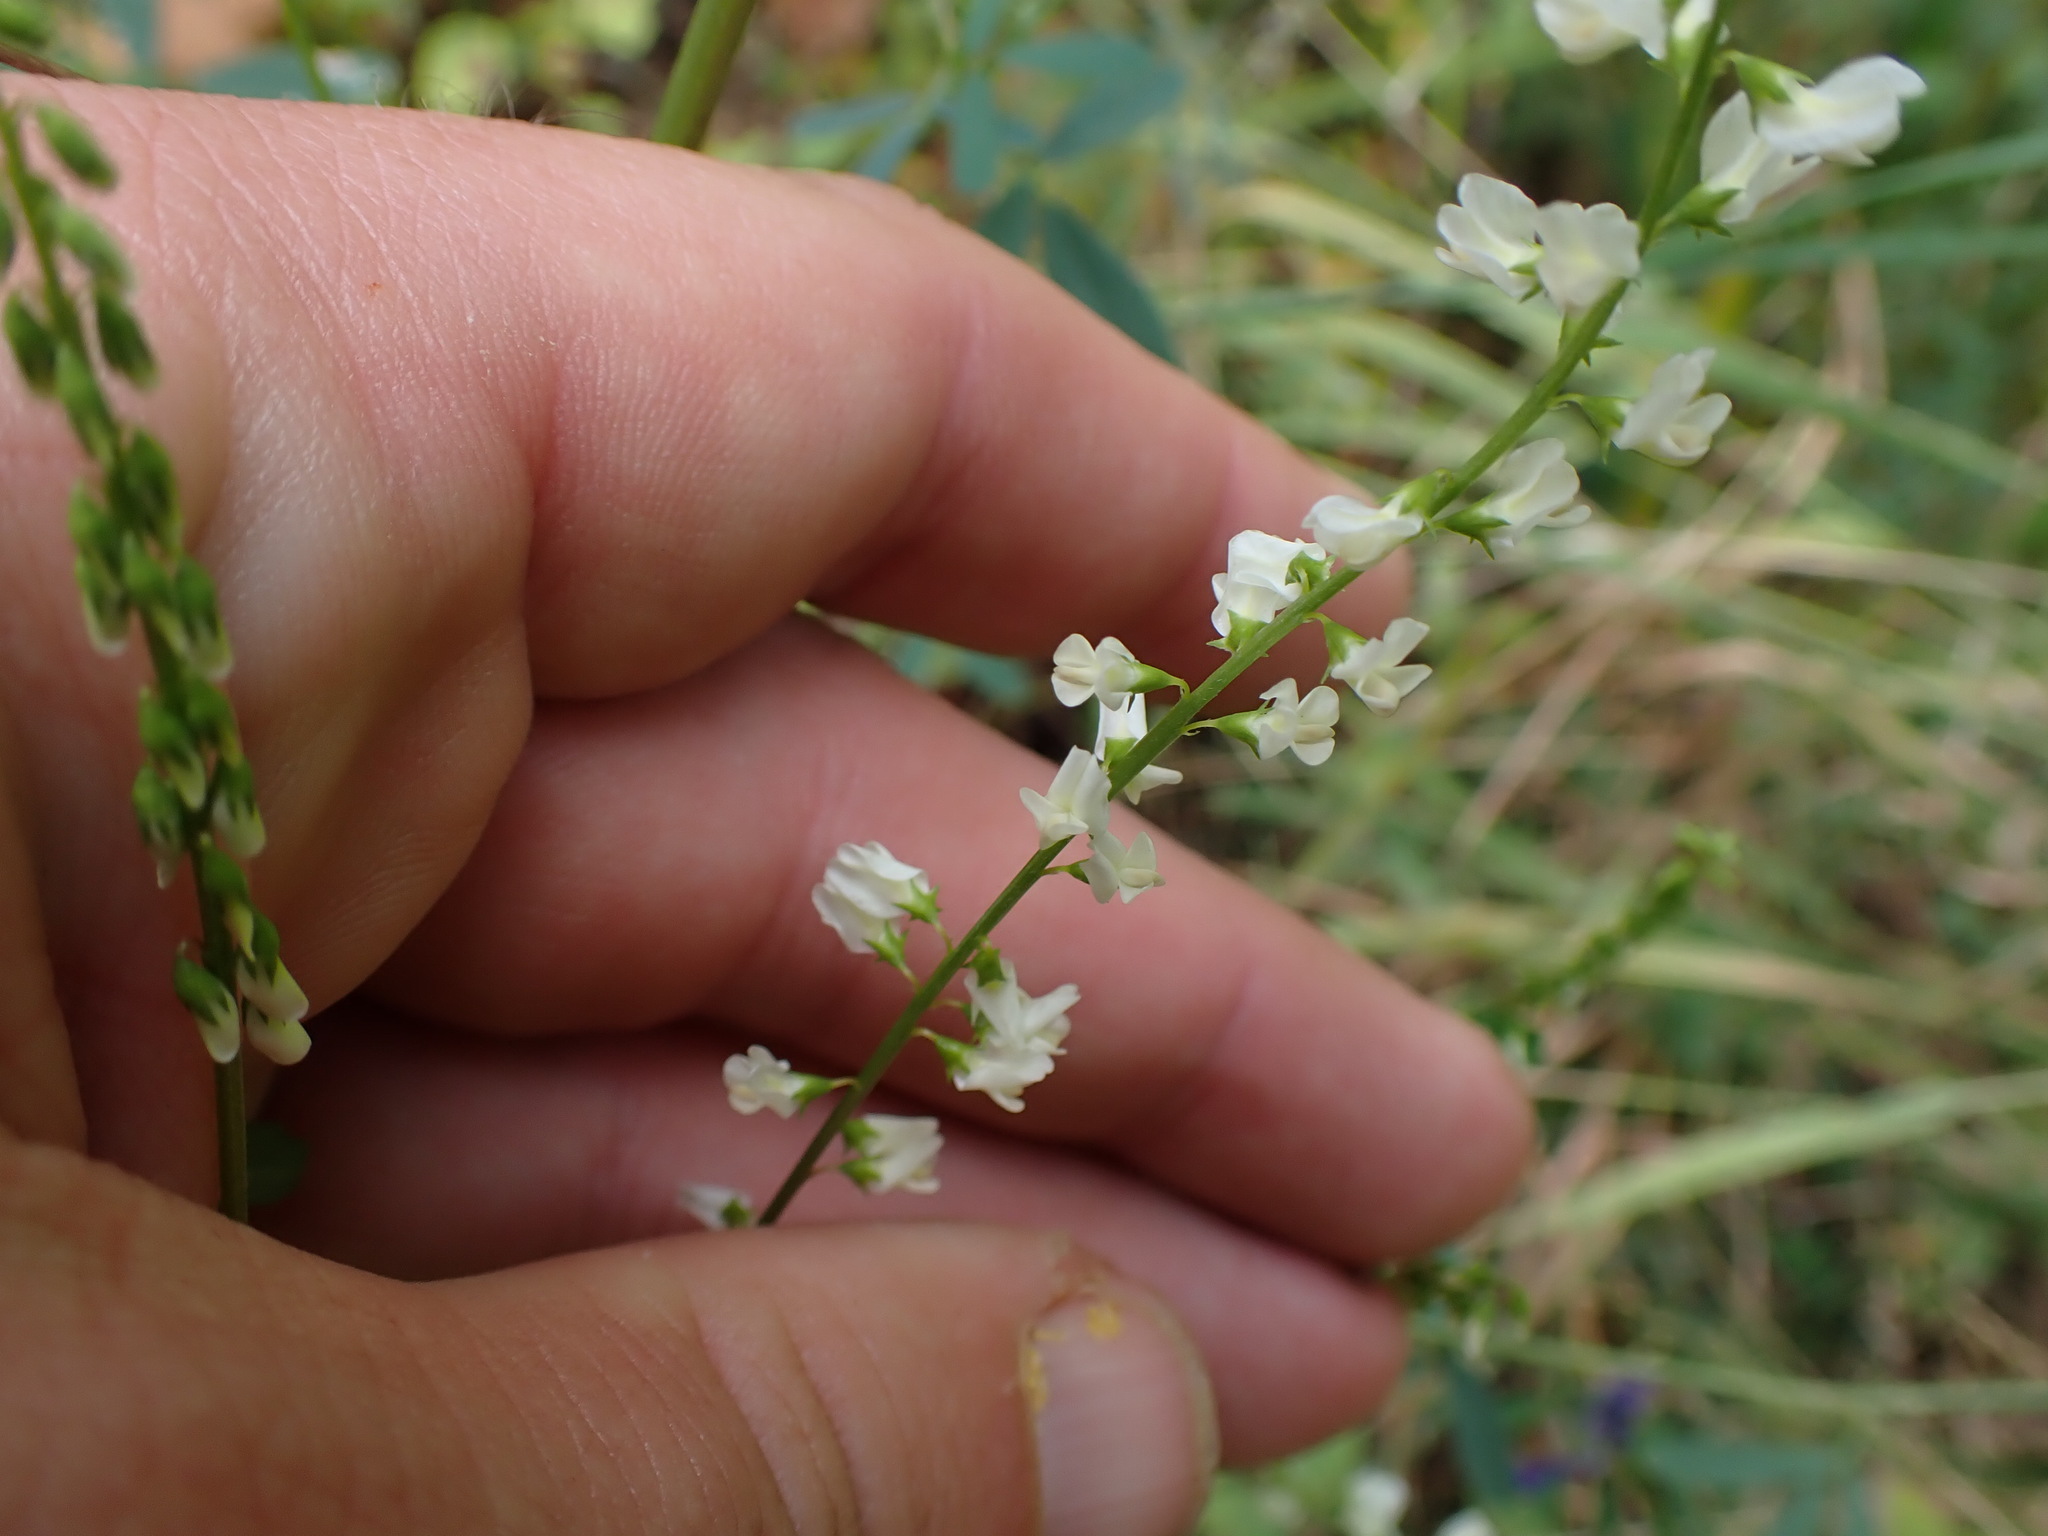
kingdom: Plantae
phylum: Tracheophyta
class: Magnoliopsida
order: Fabales
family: Fabaceae
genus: Melilotus
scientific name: Melilotus albus
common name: White melilot
